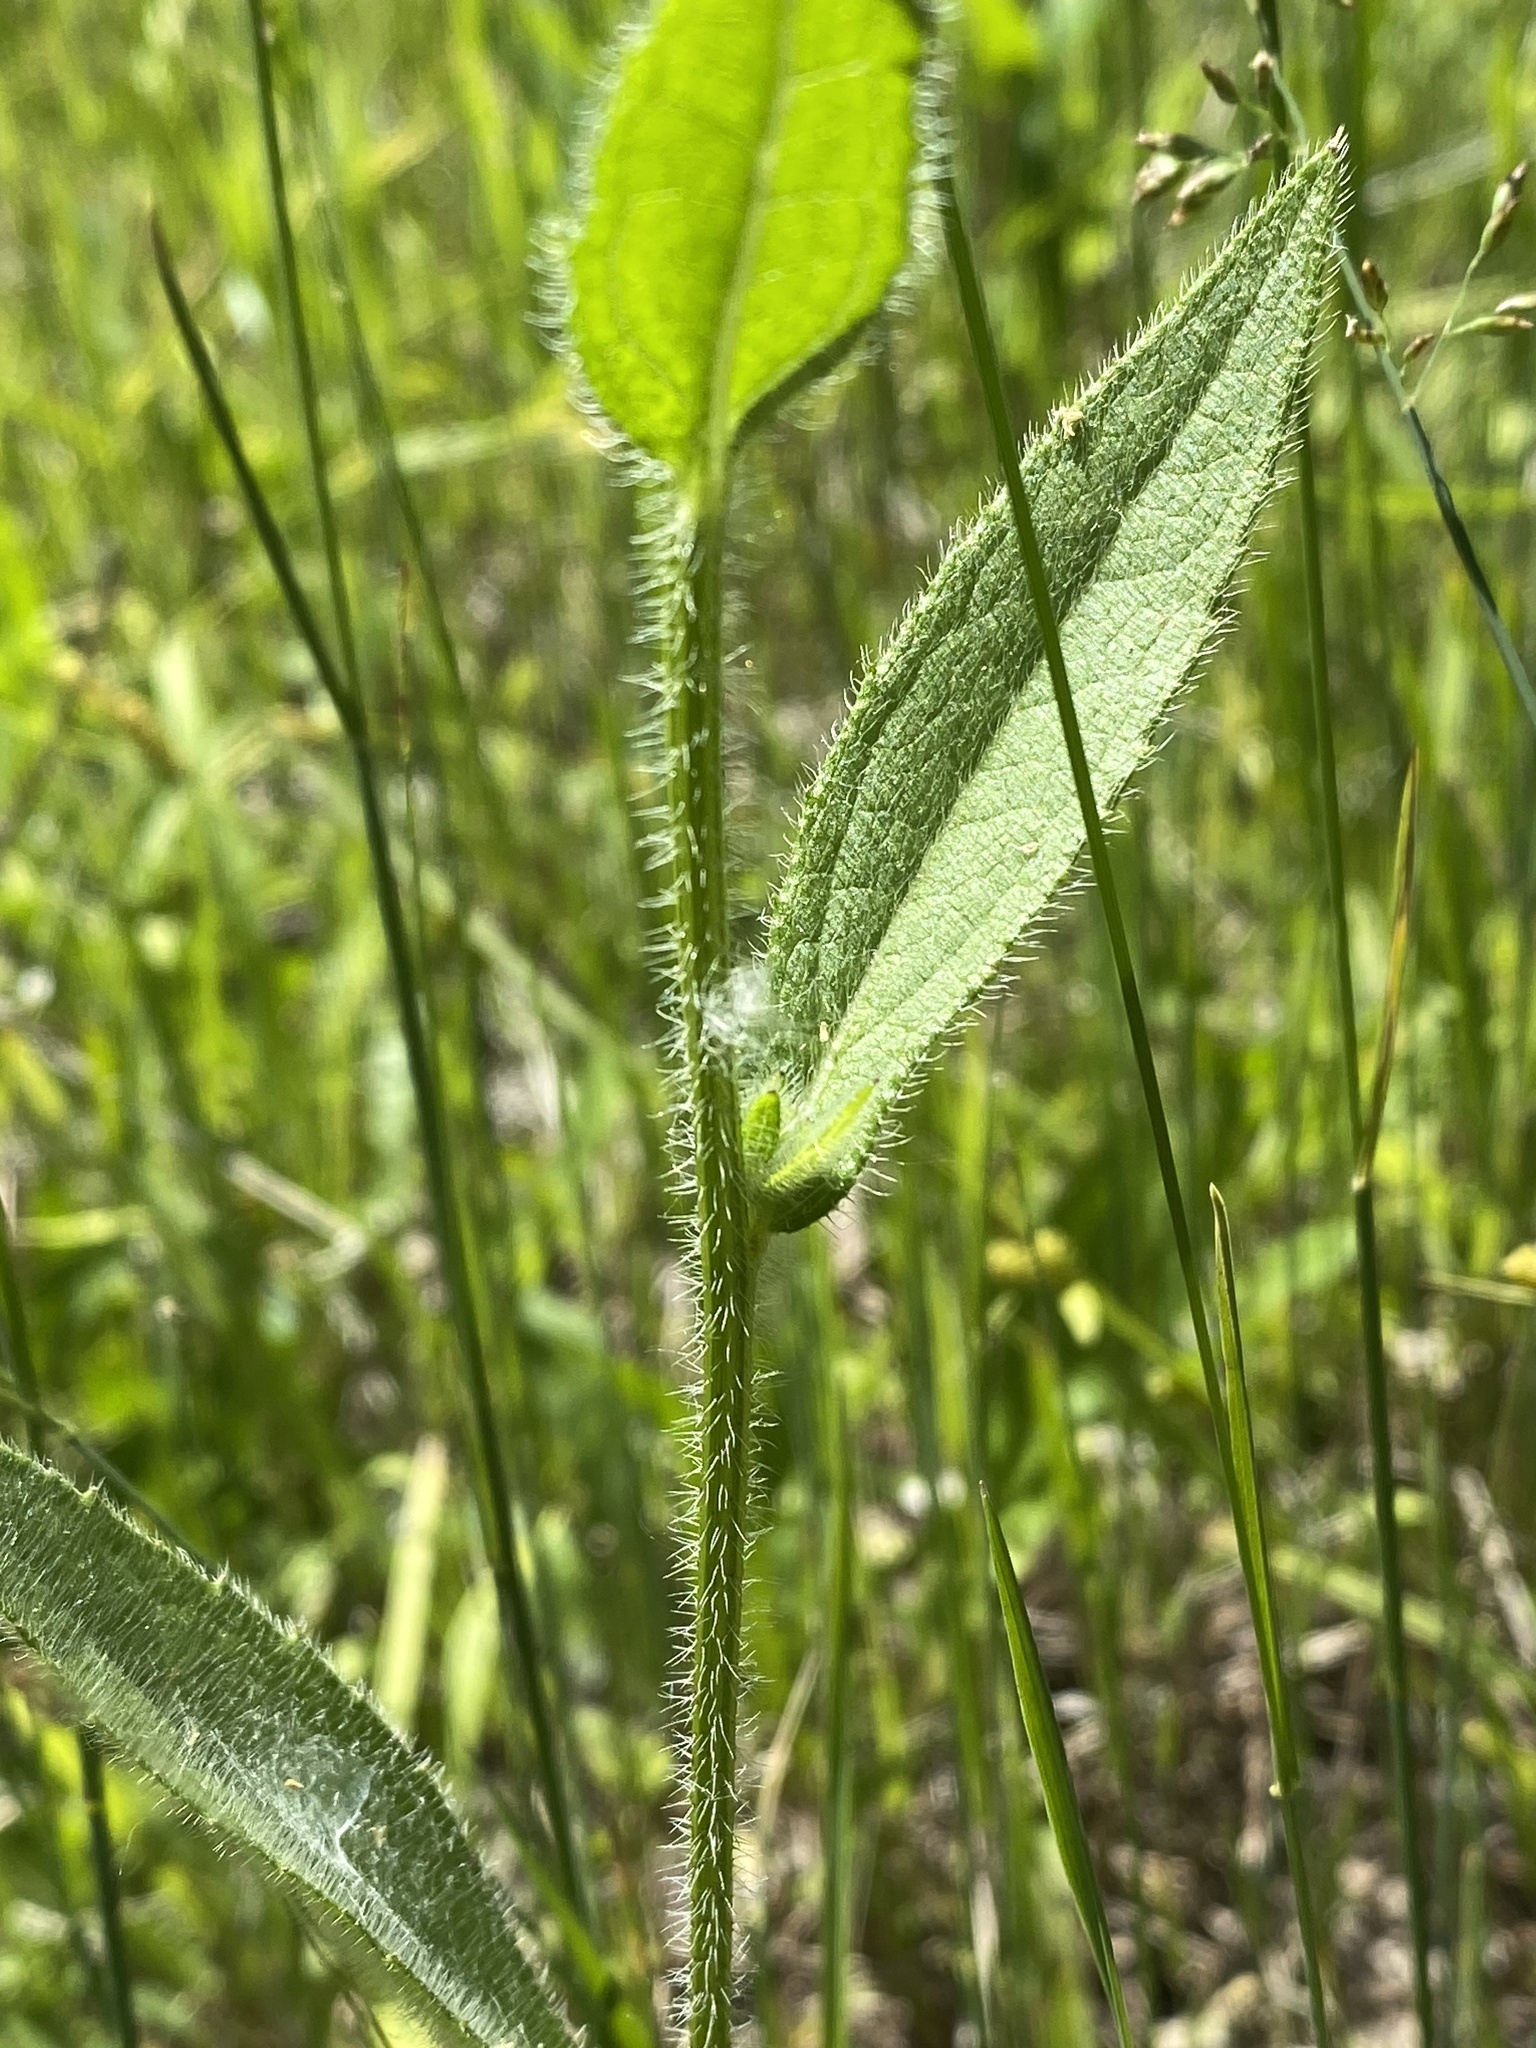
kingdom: Plantae
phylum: Tracheophyta
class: Magnoliopsida
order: Asterales
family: Asteraceae
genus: Rudbeckia
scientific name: Rudbeckia hirta
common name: Black-eyed-susan
